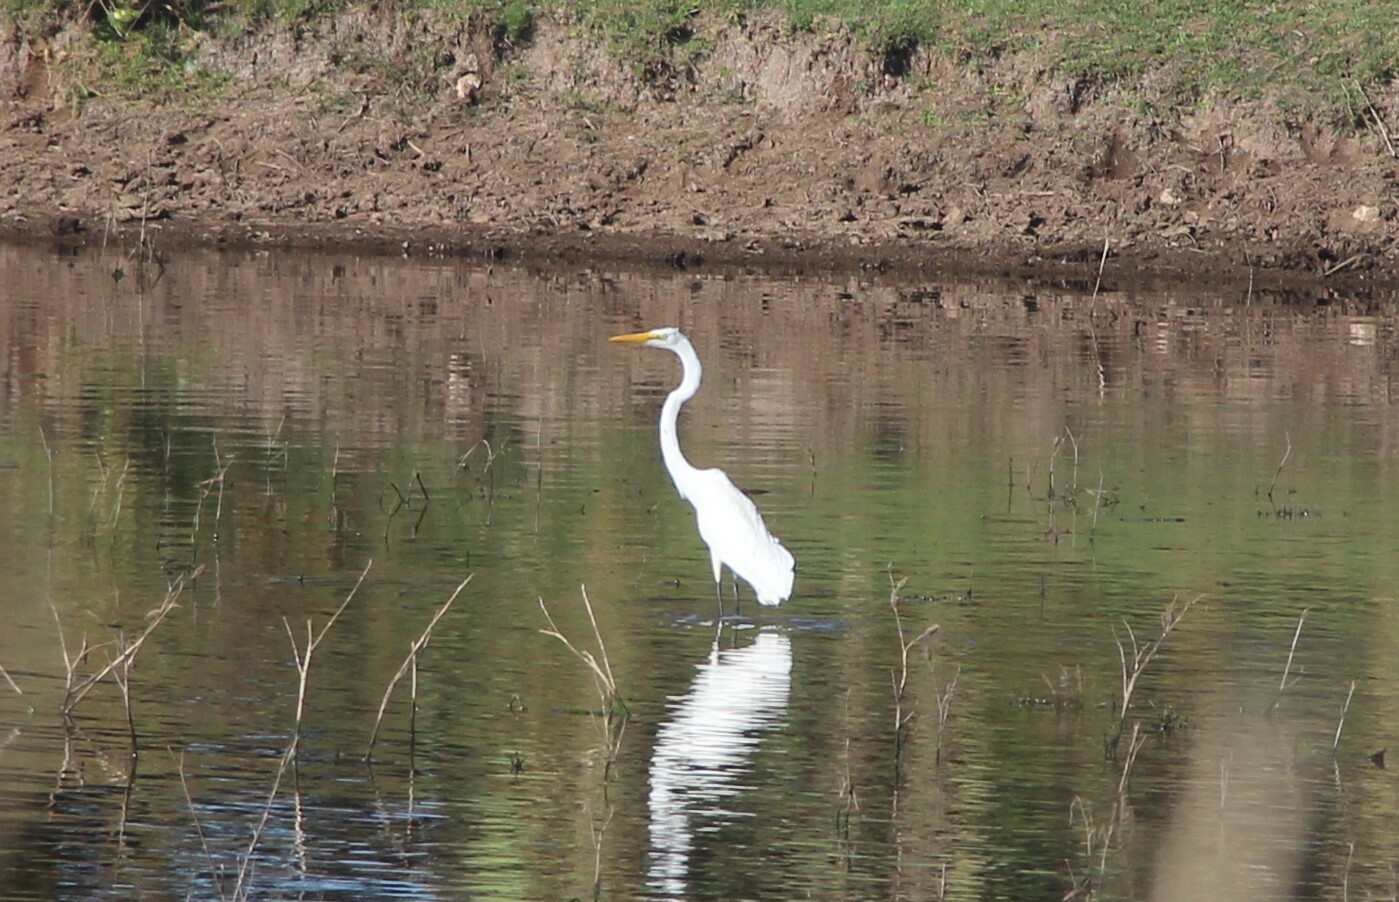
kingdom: Animalia
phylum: Chordata
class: Aves
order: Pelecaniformes
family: Ardeidae
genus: Ardea
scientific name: Ardea alba
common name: Great egret
